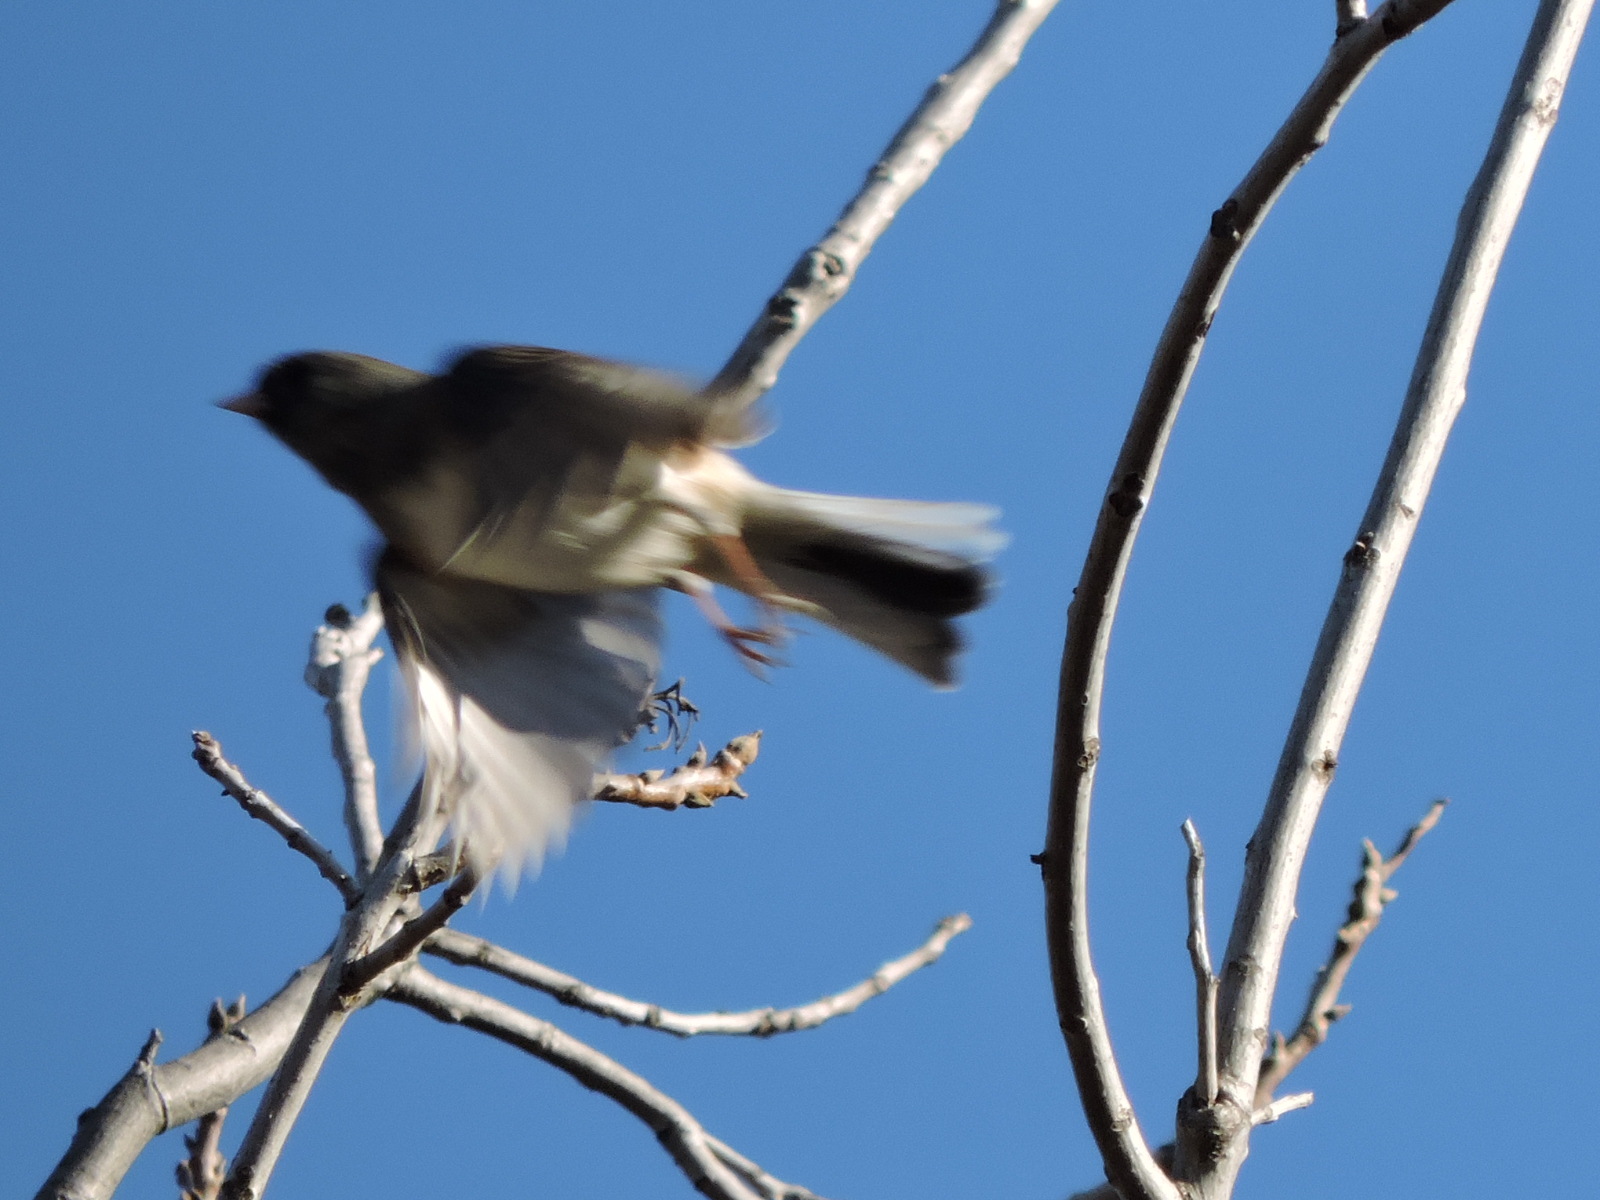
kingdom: Animalia
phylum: Chordata
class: Aves
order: Passeriformes
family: Passerellidae
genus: Junco
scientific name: Junco hyemalis
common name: Dark-eyed junco
